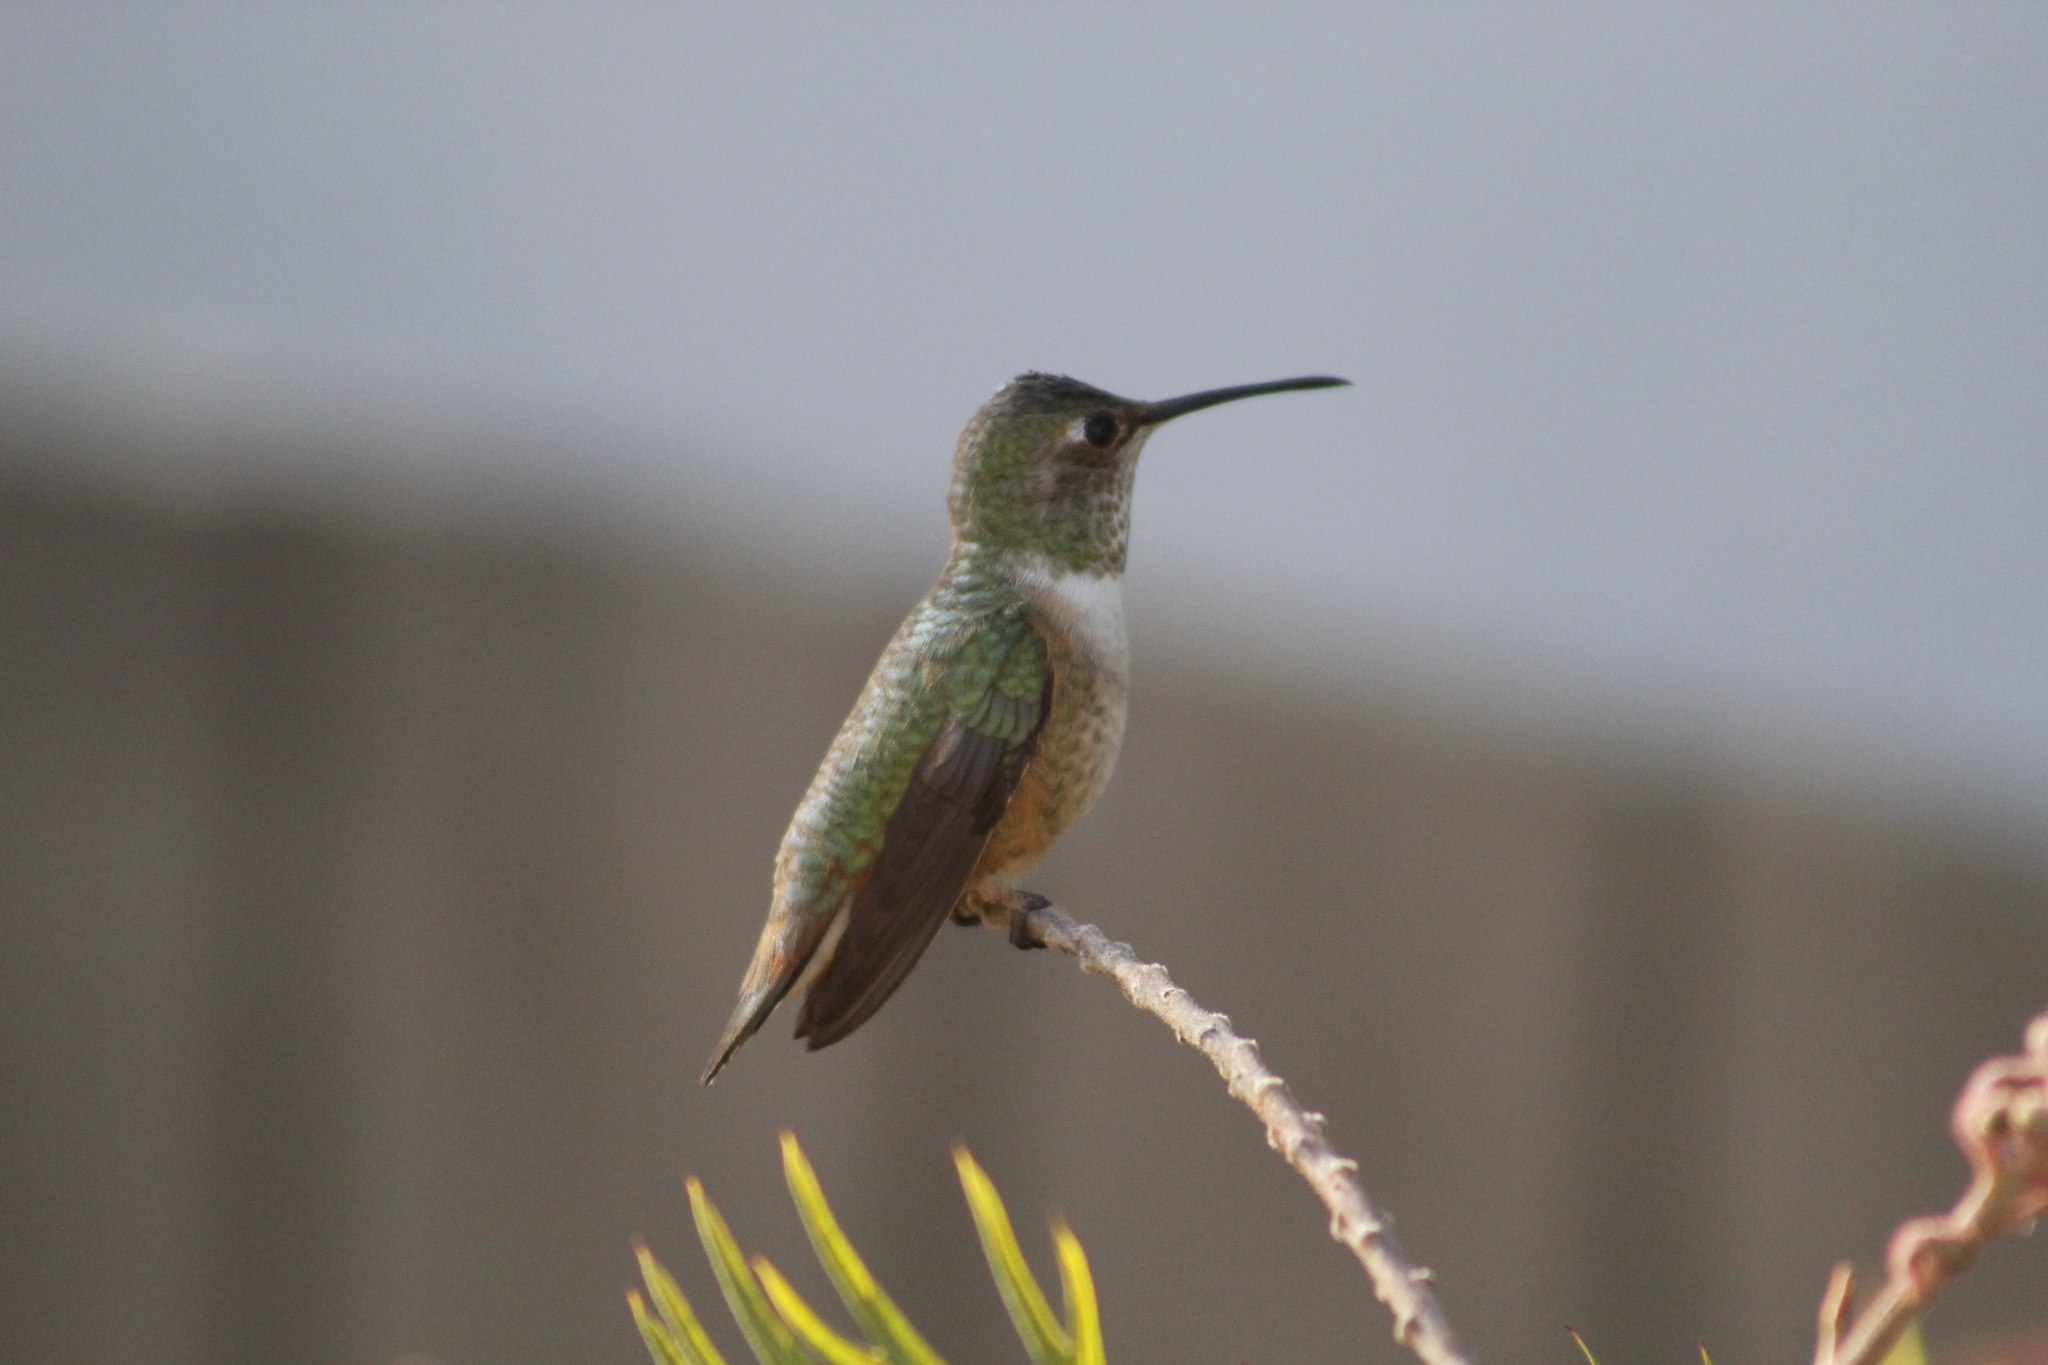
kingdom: Animalia
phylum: Chordata
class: Aves
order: Apodiformes
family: Trochilidae
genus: Selasphorus
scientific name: Selasphorus sasin
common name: Allen's hummingbird
